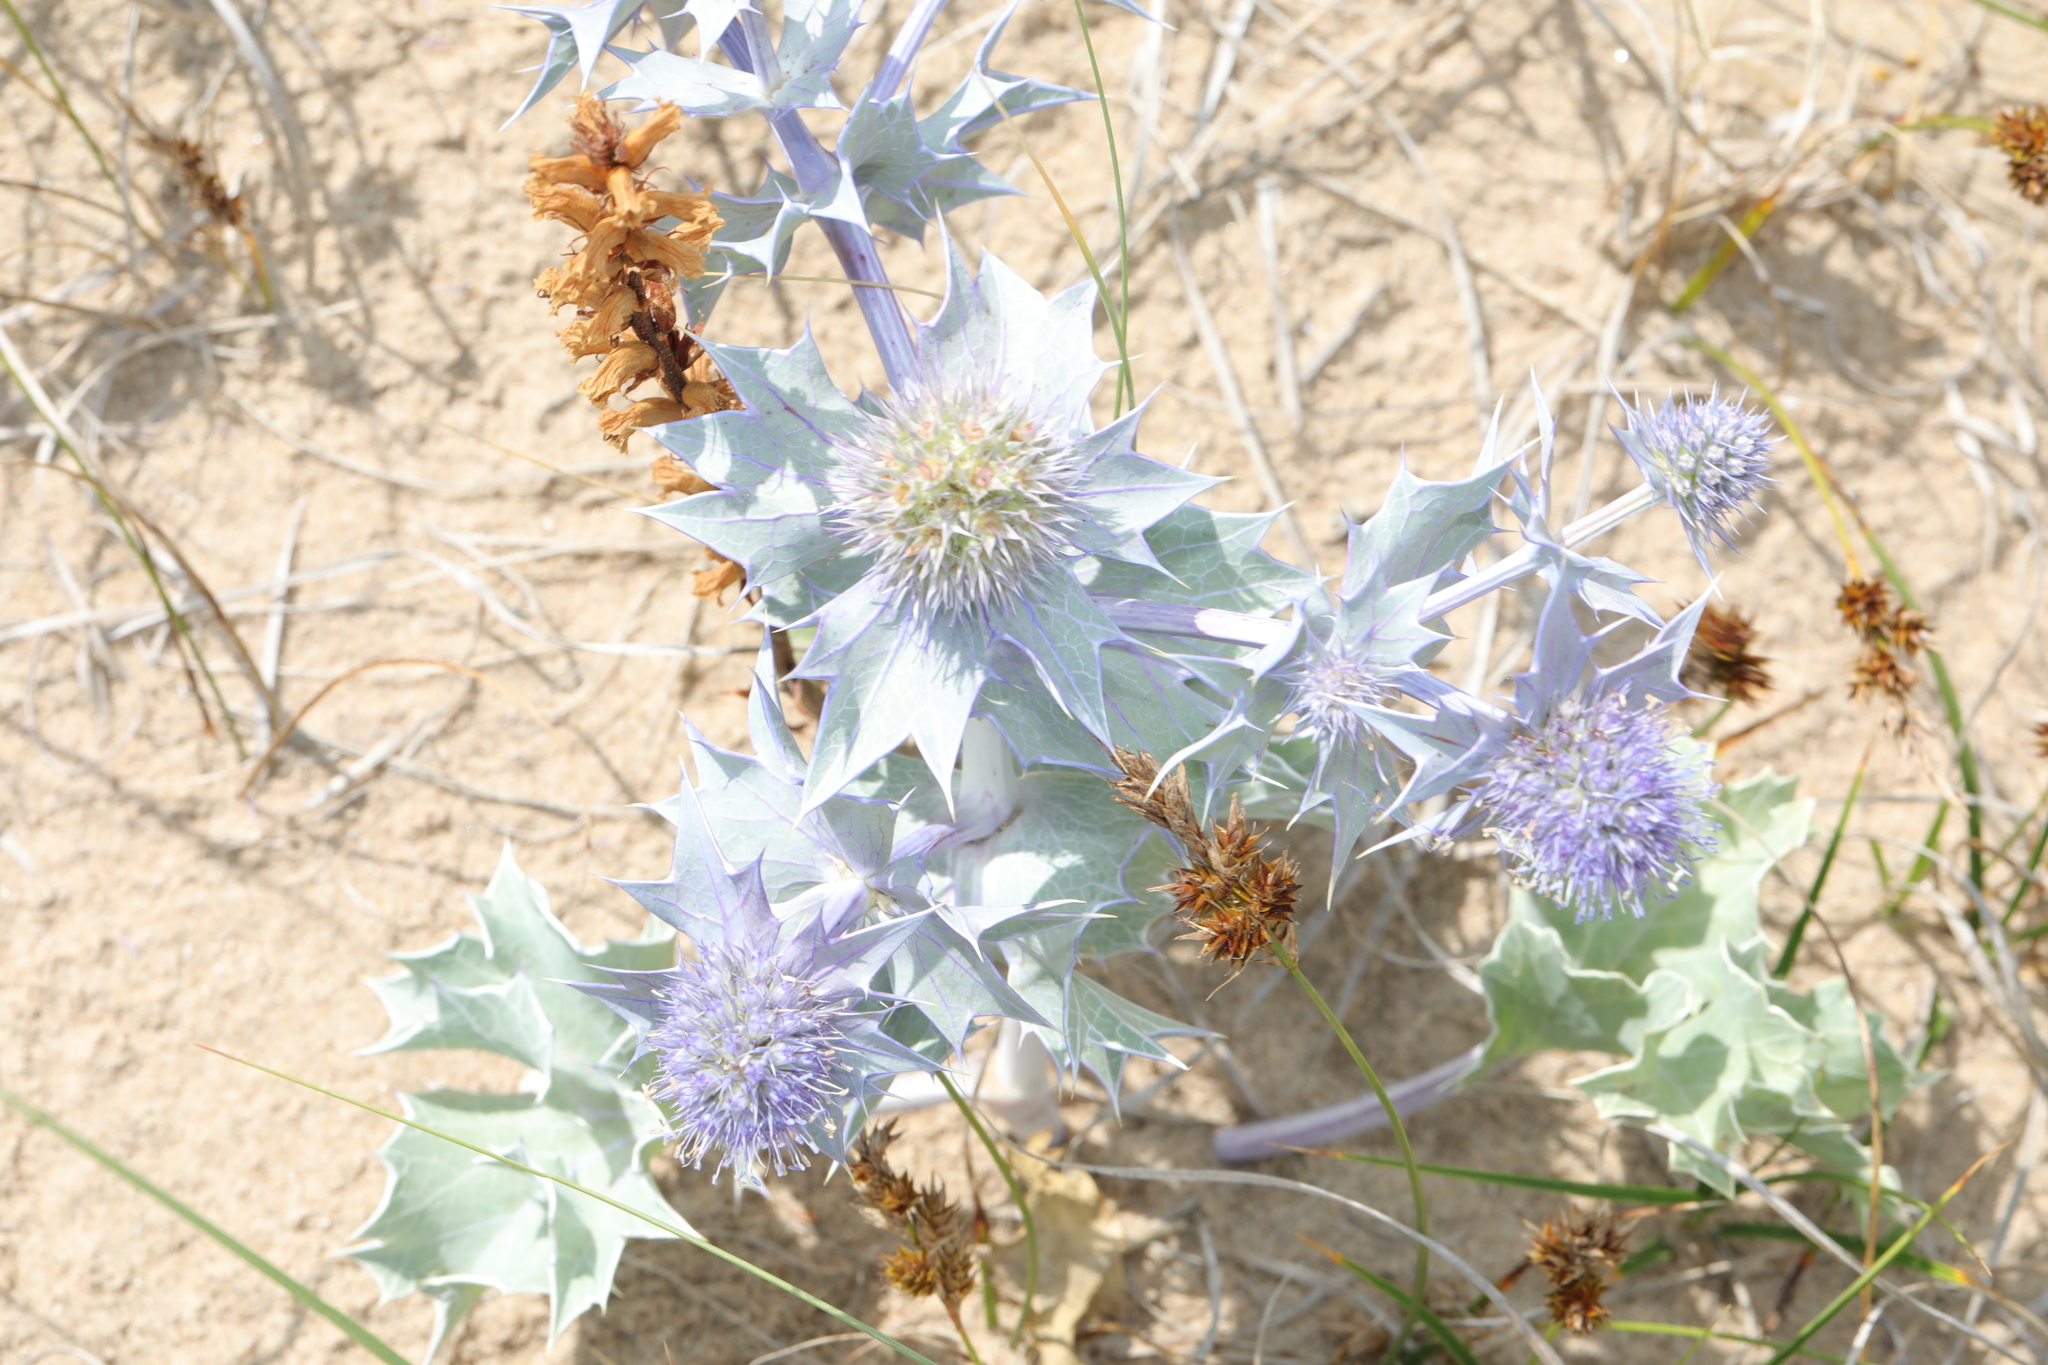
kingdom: Plantae
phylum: Tracheophyta
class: Magnoliopsida
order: Apiales
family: Apiaceae
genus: Eryngium
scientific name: Eryngium maritimum
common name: Sea-holly
